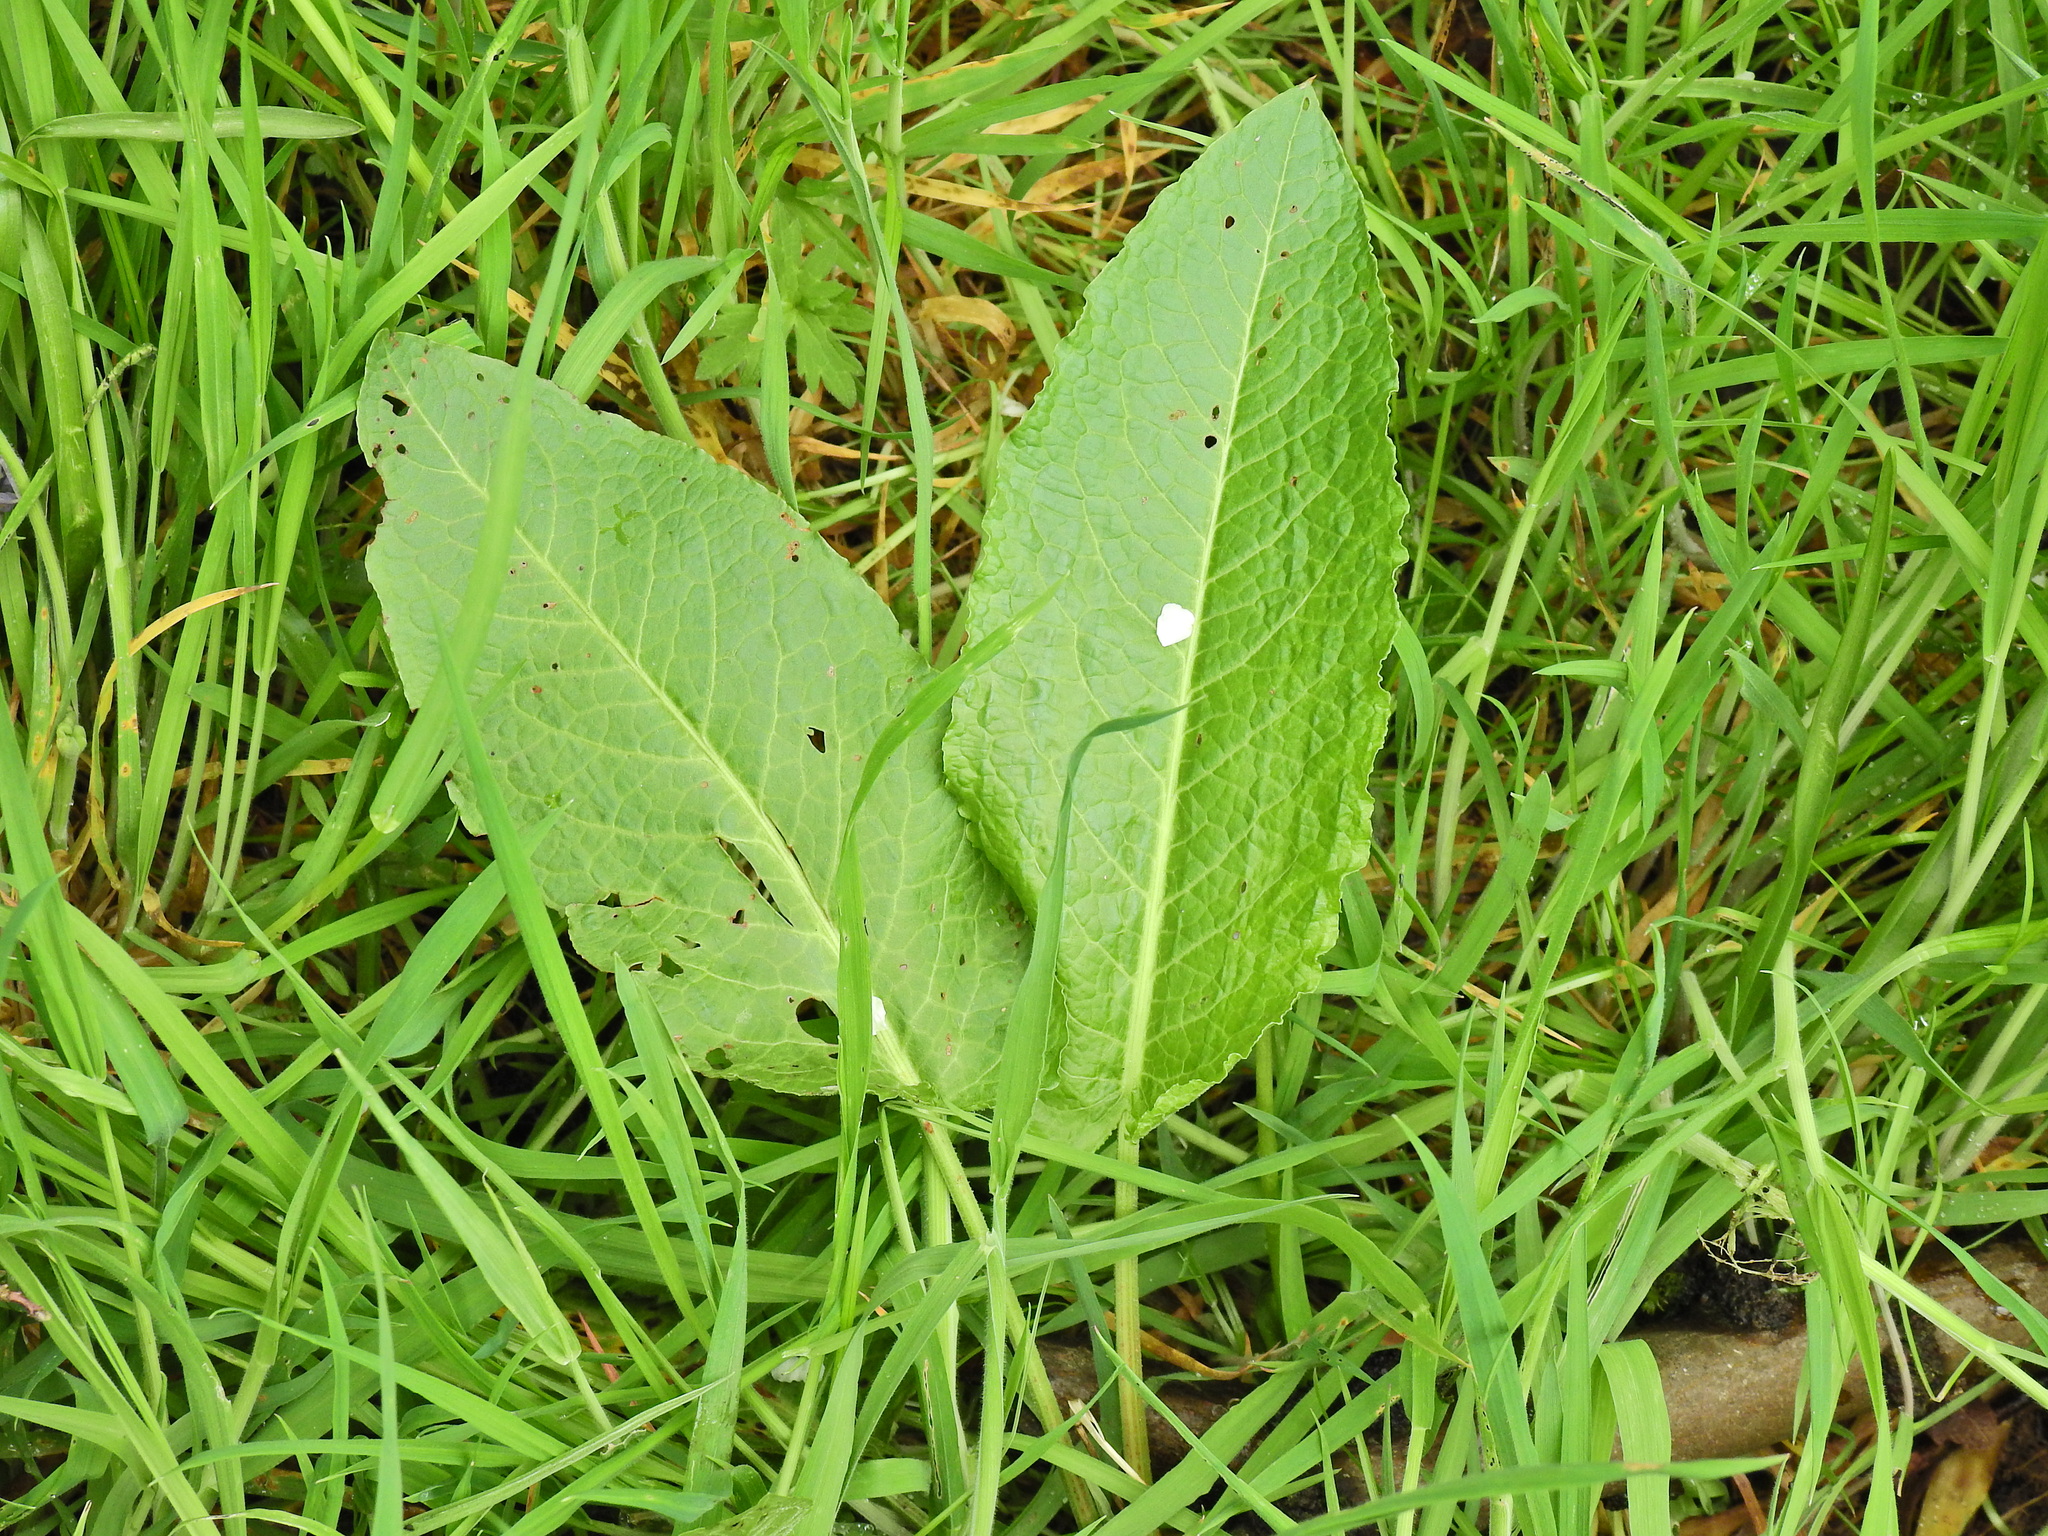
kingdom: Plantae
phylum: Tracheophyta
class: Magnoliopsida
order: Caryophyllales
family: Polygonaceae
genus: Rumex
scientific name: Rumex obtusifolius
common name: Bitter dock
